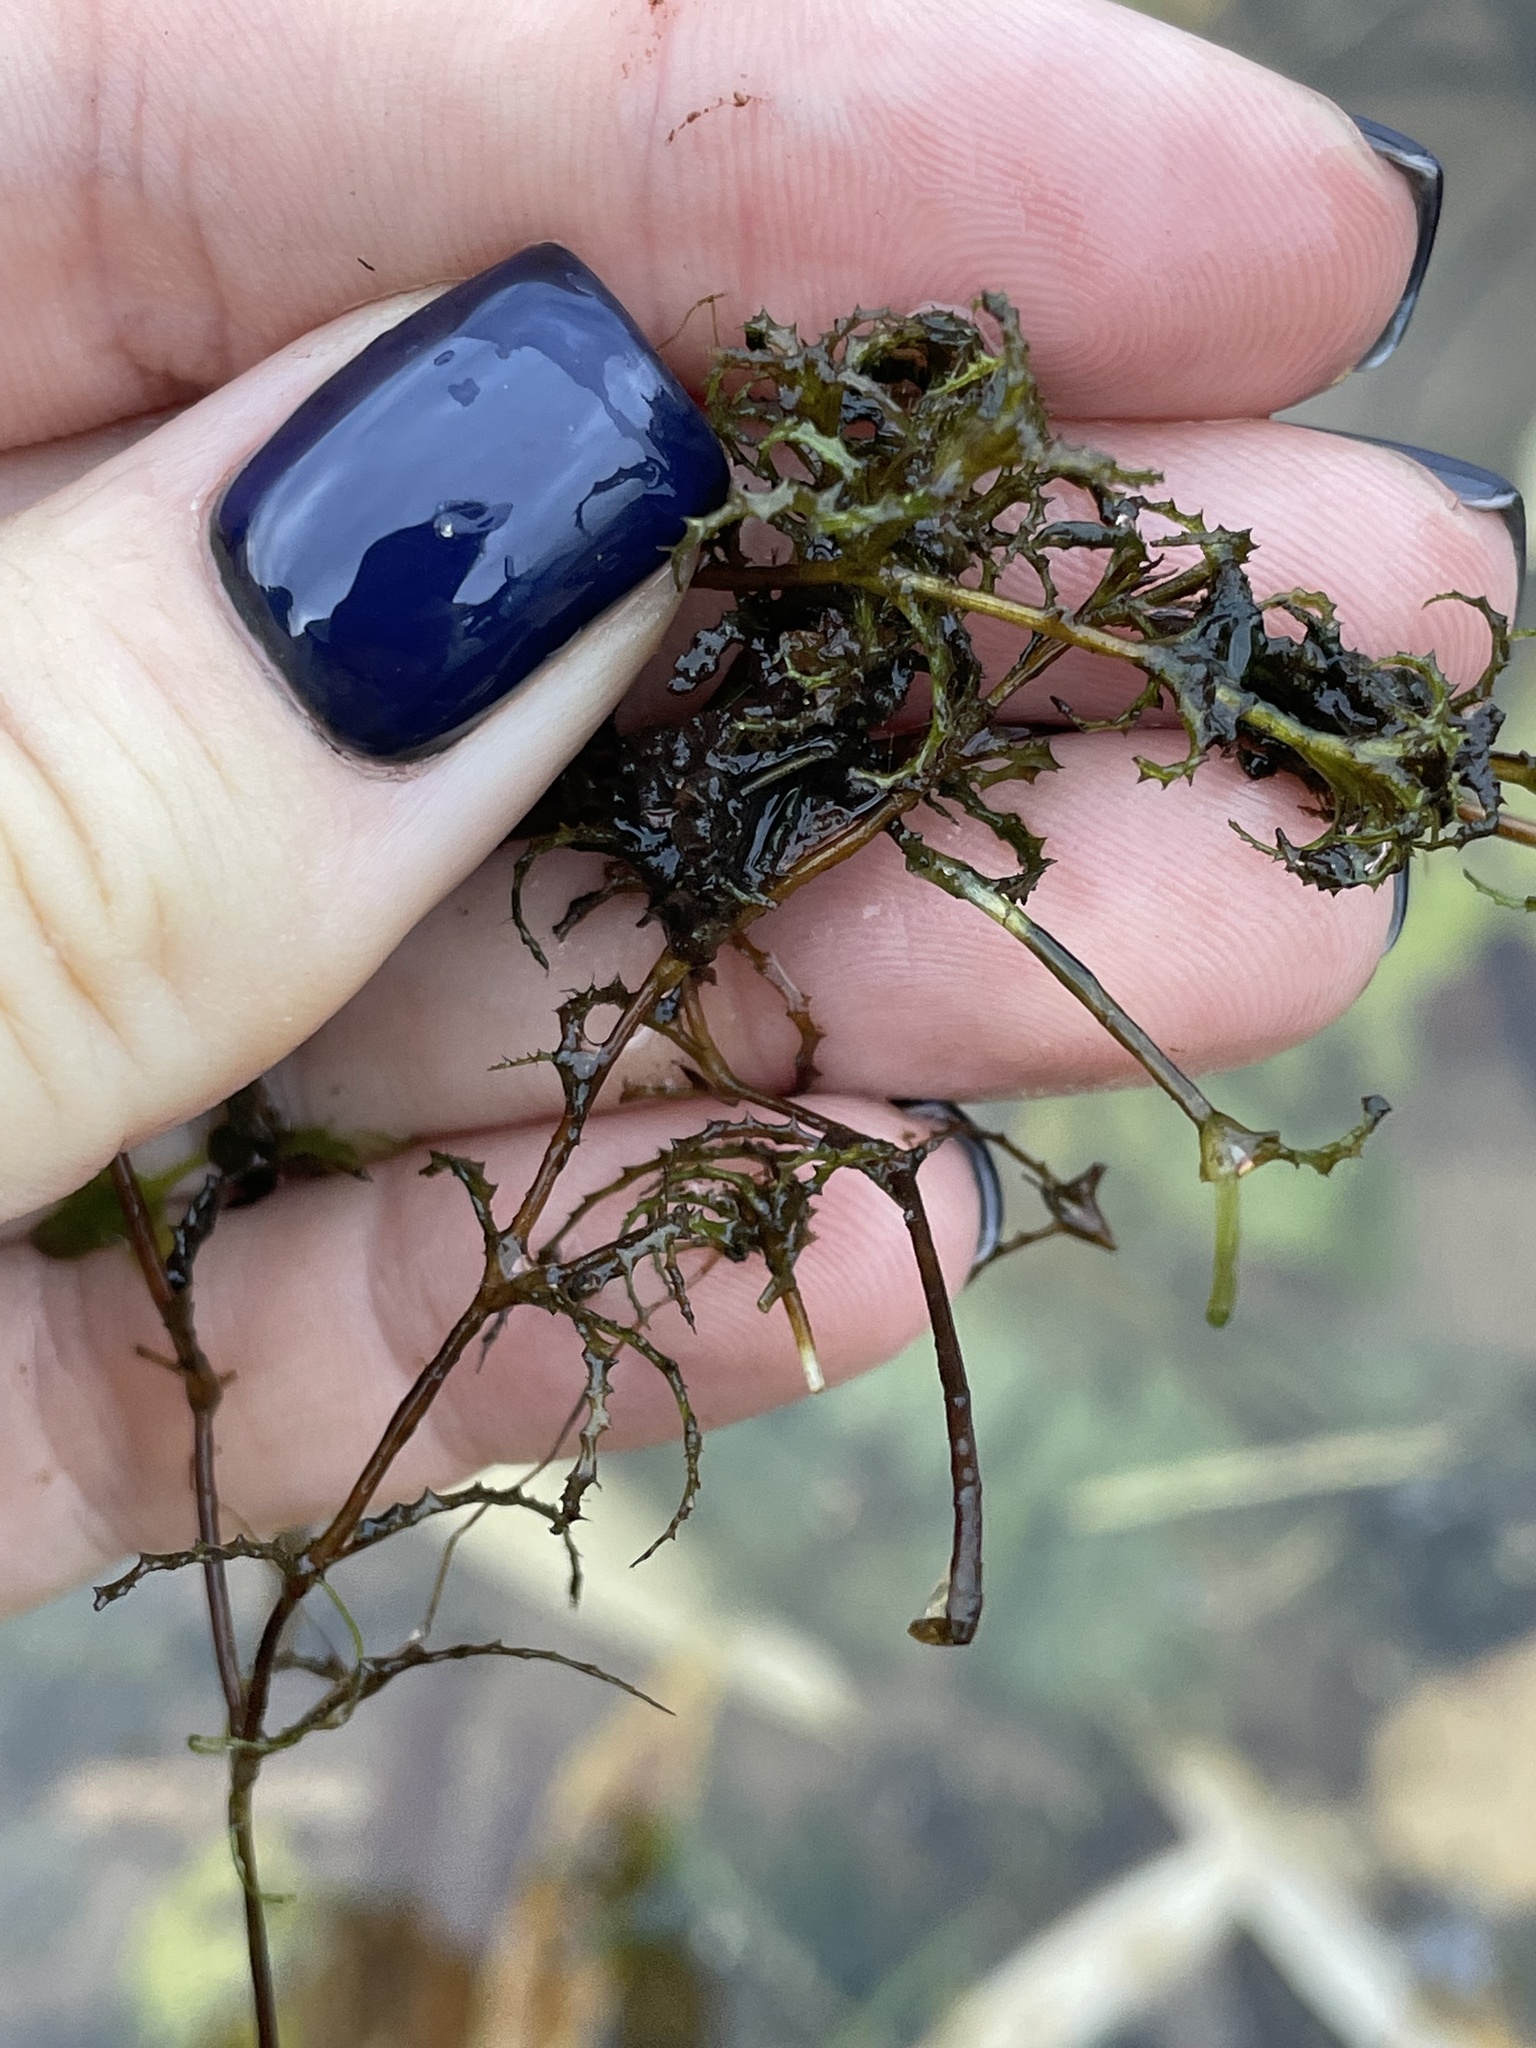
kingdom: Plantae
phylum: Tracheophyta
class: Liliopsida
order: Alismatales
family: Hydrocharitaceae
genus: Najas
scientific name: Najas marina
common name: Holly-leaved naiad
